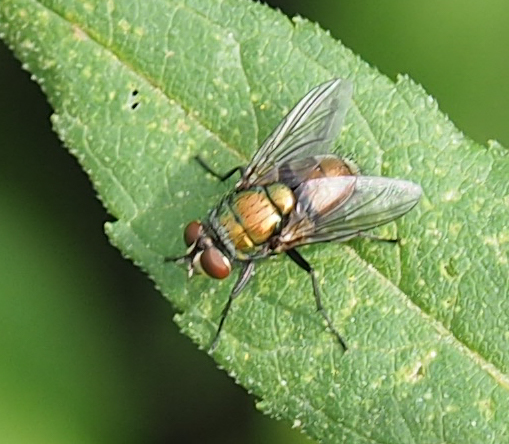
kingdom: Animalia
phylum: Arthropoda
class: Insecta
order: Diptera
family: Calliphoridae
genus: Lucilia
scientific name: Lucilia cuprina
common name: Sheep blow fly
